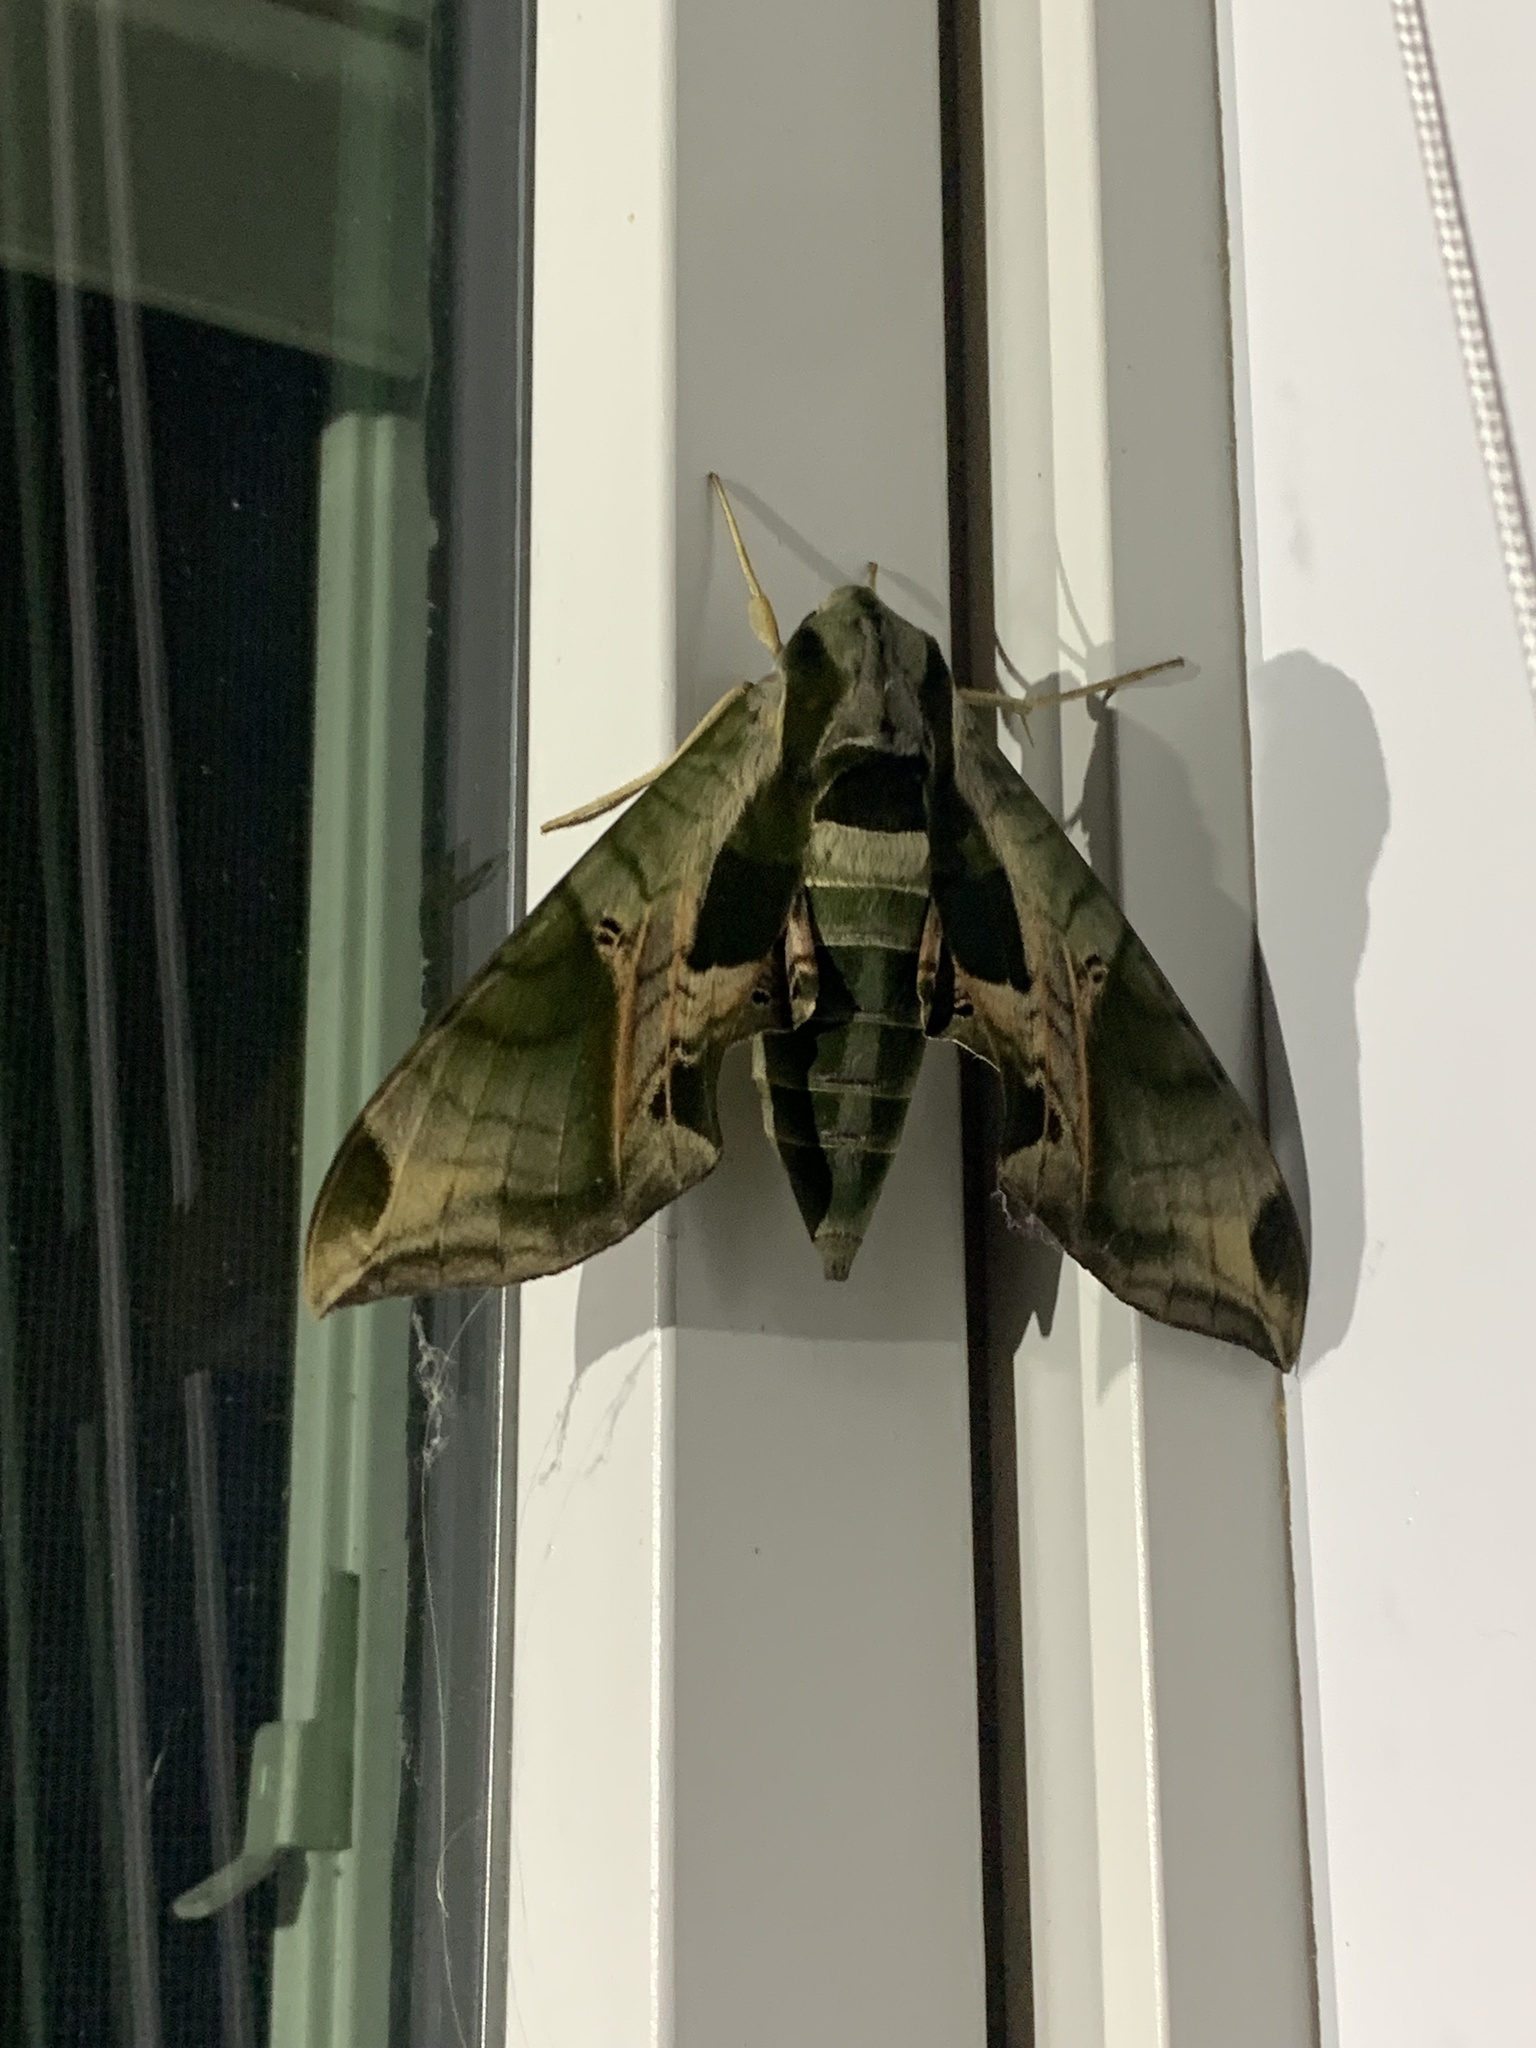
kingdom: Animalia
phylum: Arthropoda
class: Insecta
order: Lepidoptera
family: Sphingidae
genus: Eumorpha
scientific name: Eumorpha pandorus
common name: Pandora sphinx
